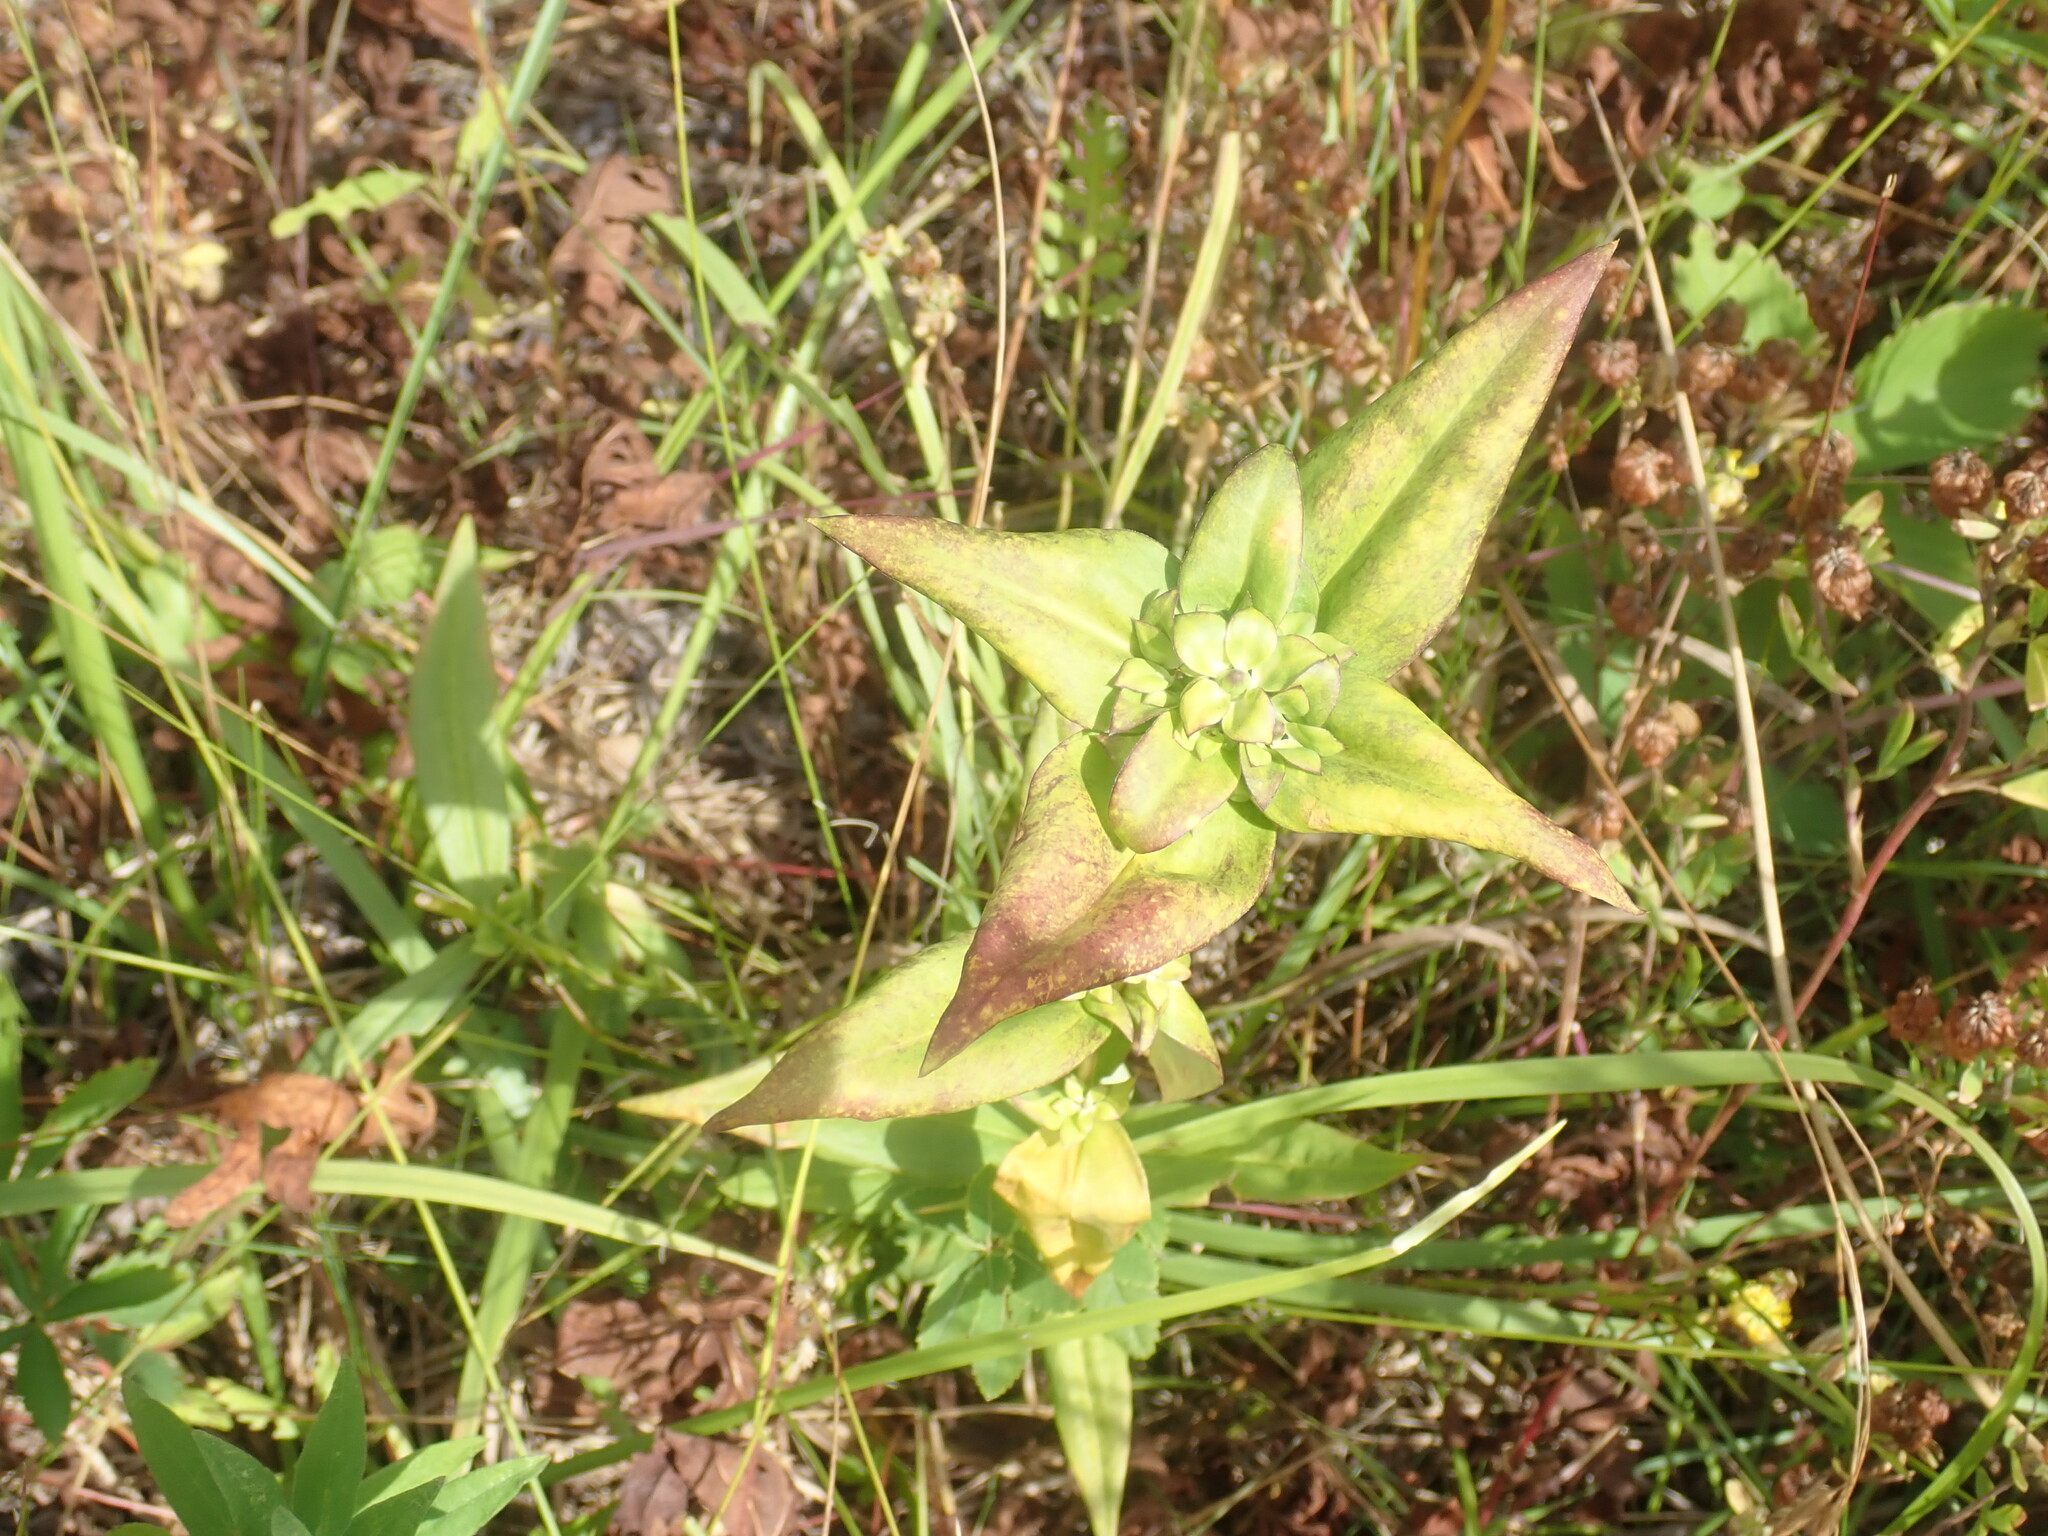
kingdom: Plantae
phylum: Tracheophyta
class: Magnoliopsida
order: Gentianales
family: Gentianaceae
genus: Gentiana
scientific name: Gentiana clausa
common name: Blind gentian
